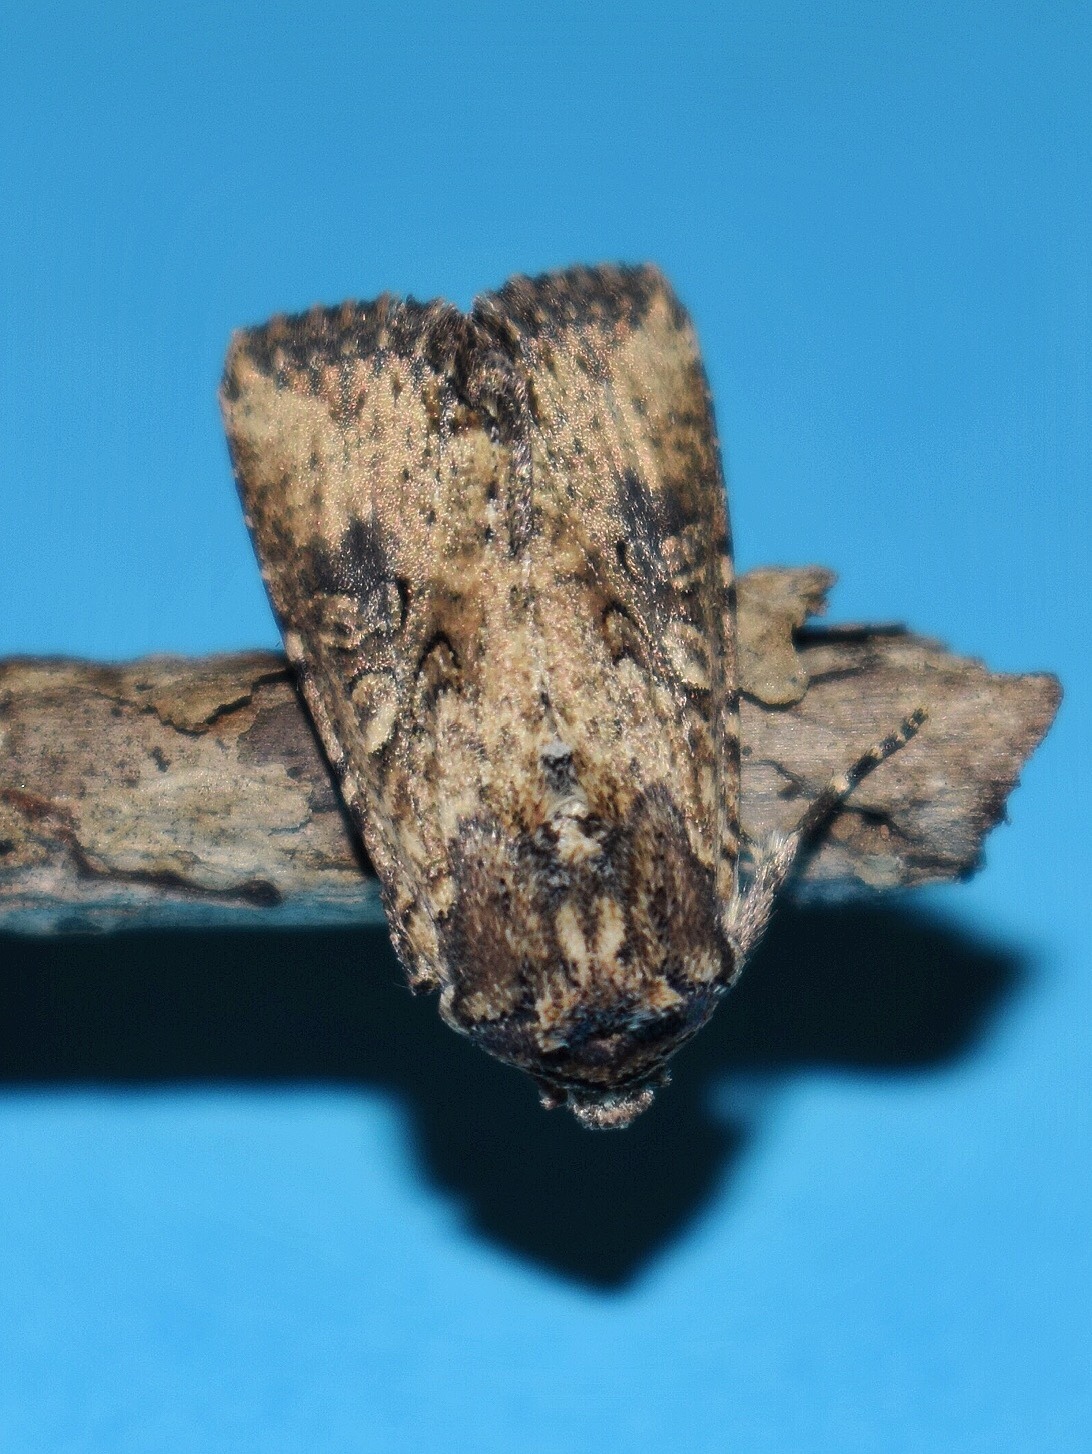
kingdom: Animalia
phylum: Arthropoda
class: Insecta
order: Lepidoptera
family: Noctuidae
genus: Micragrotis
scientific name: Micragrotis puncticostata
